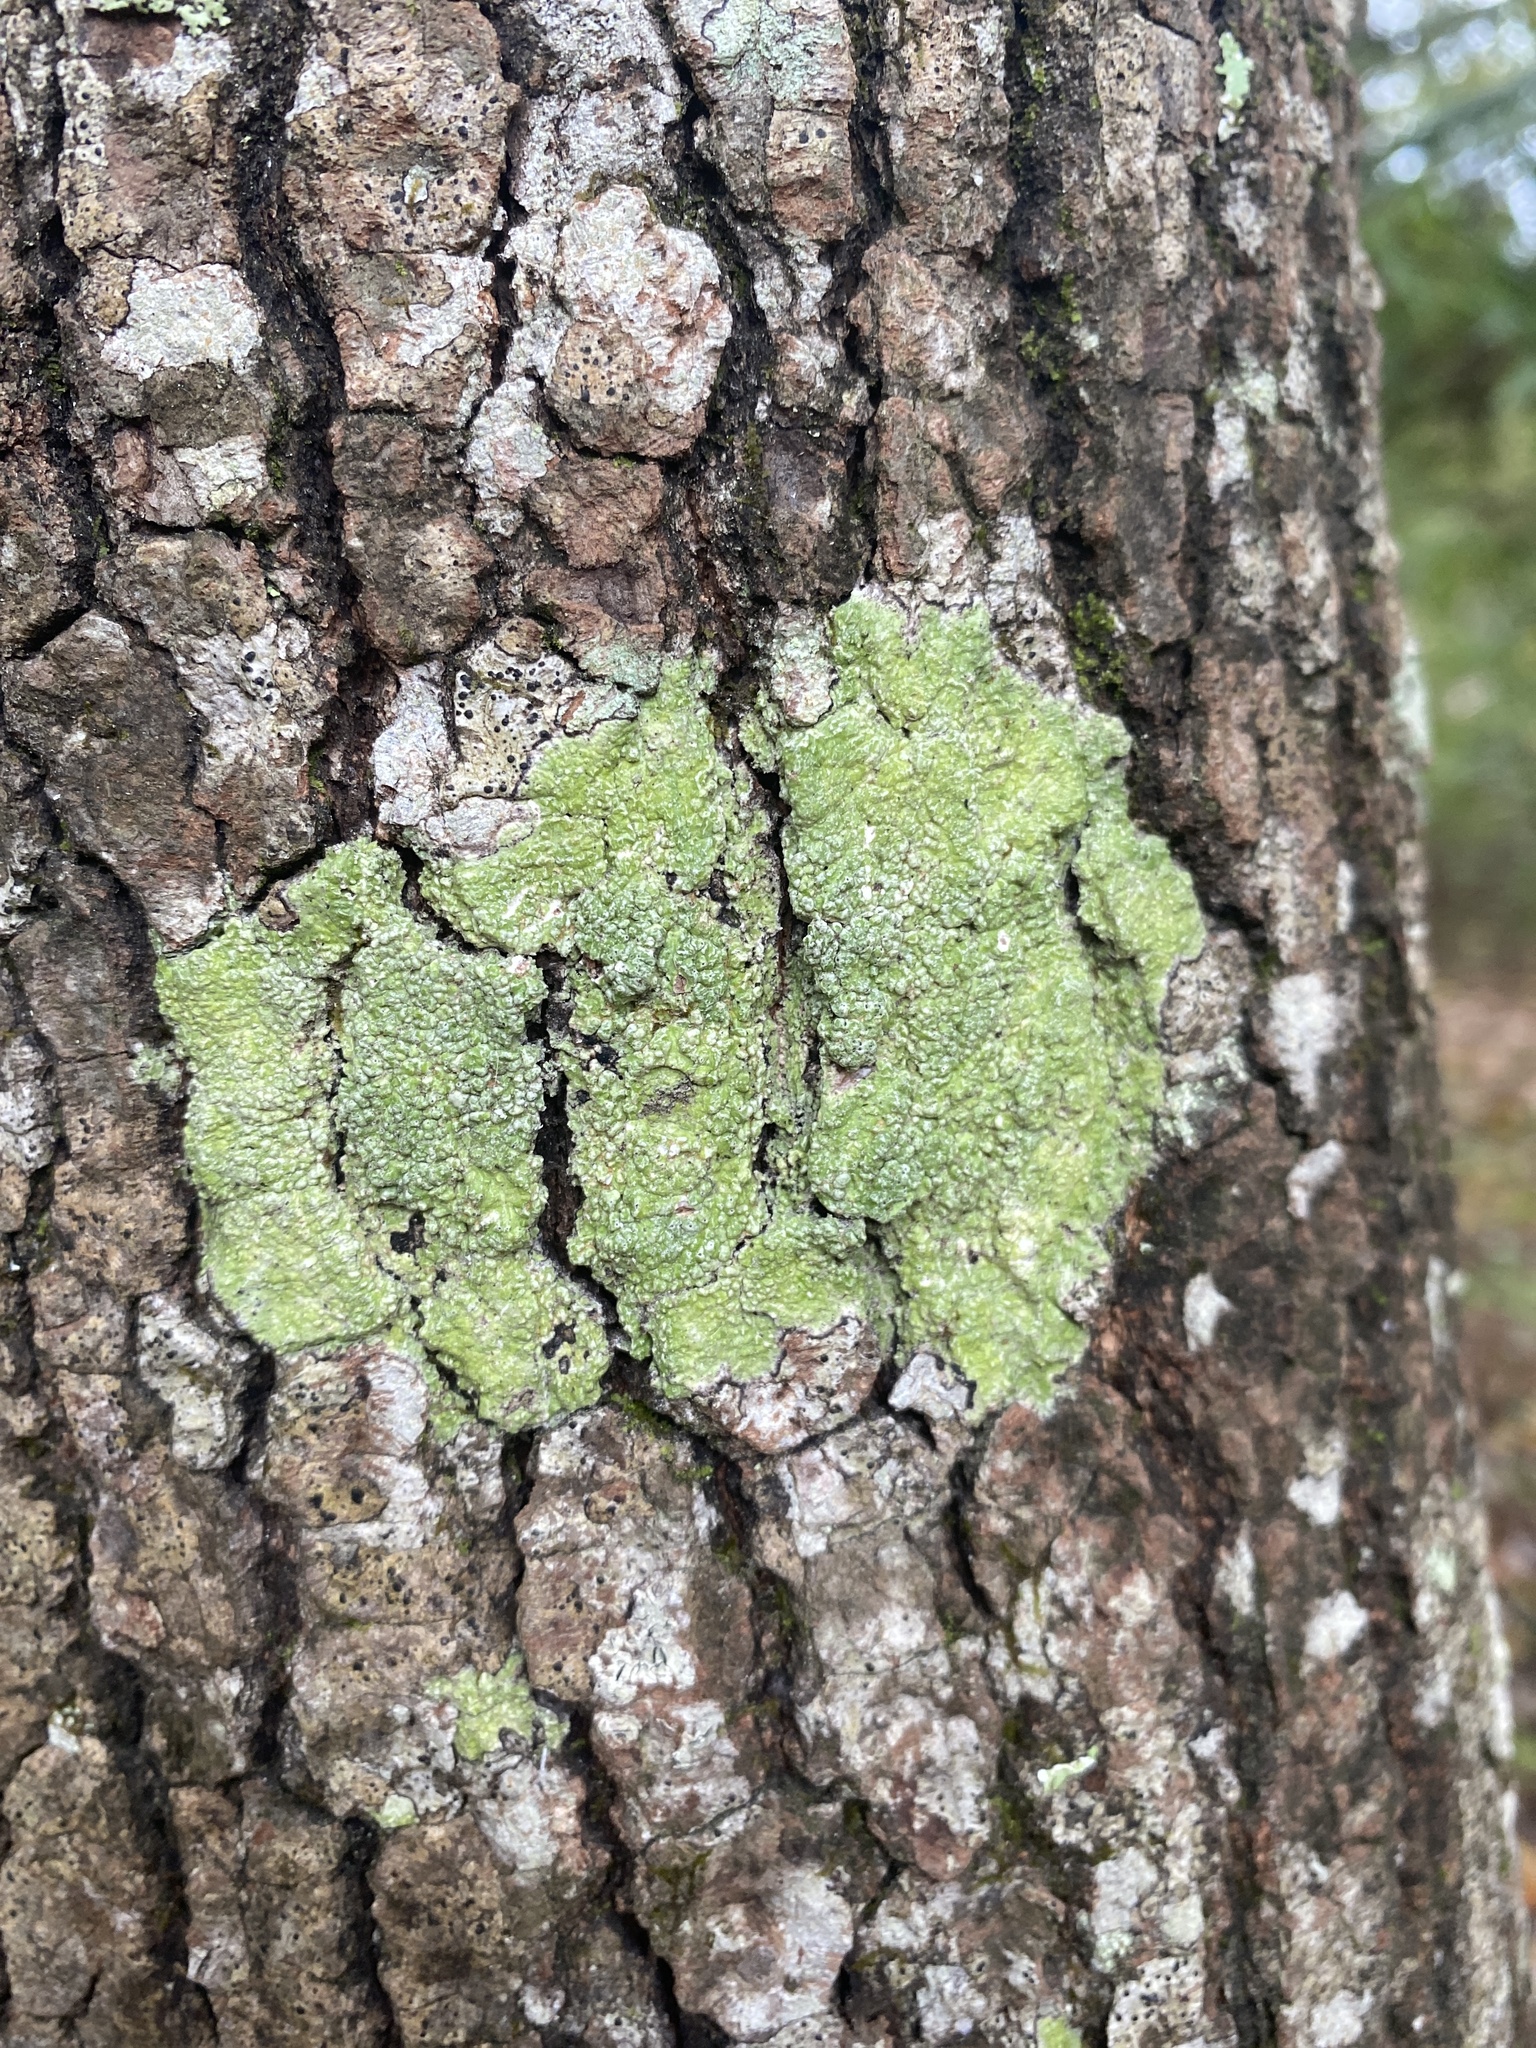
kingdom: Fungi
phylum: Ascomycota
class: Lecanoromycetes
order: Pertusariales
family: Pertusariaceae
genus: Pertusaria
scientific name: Pertusaria sinusmexicani
